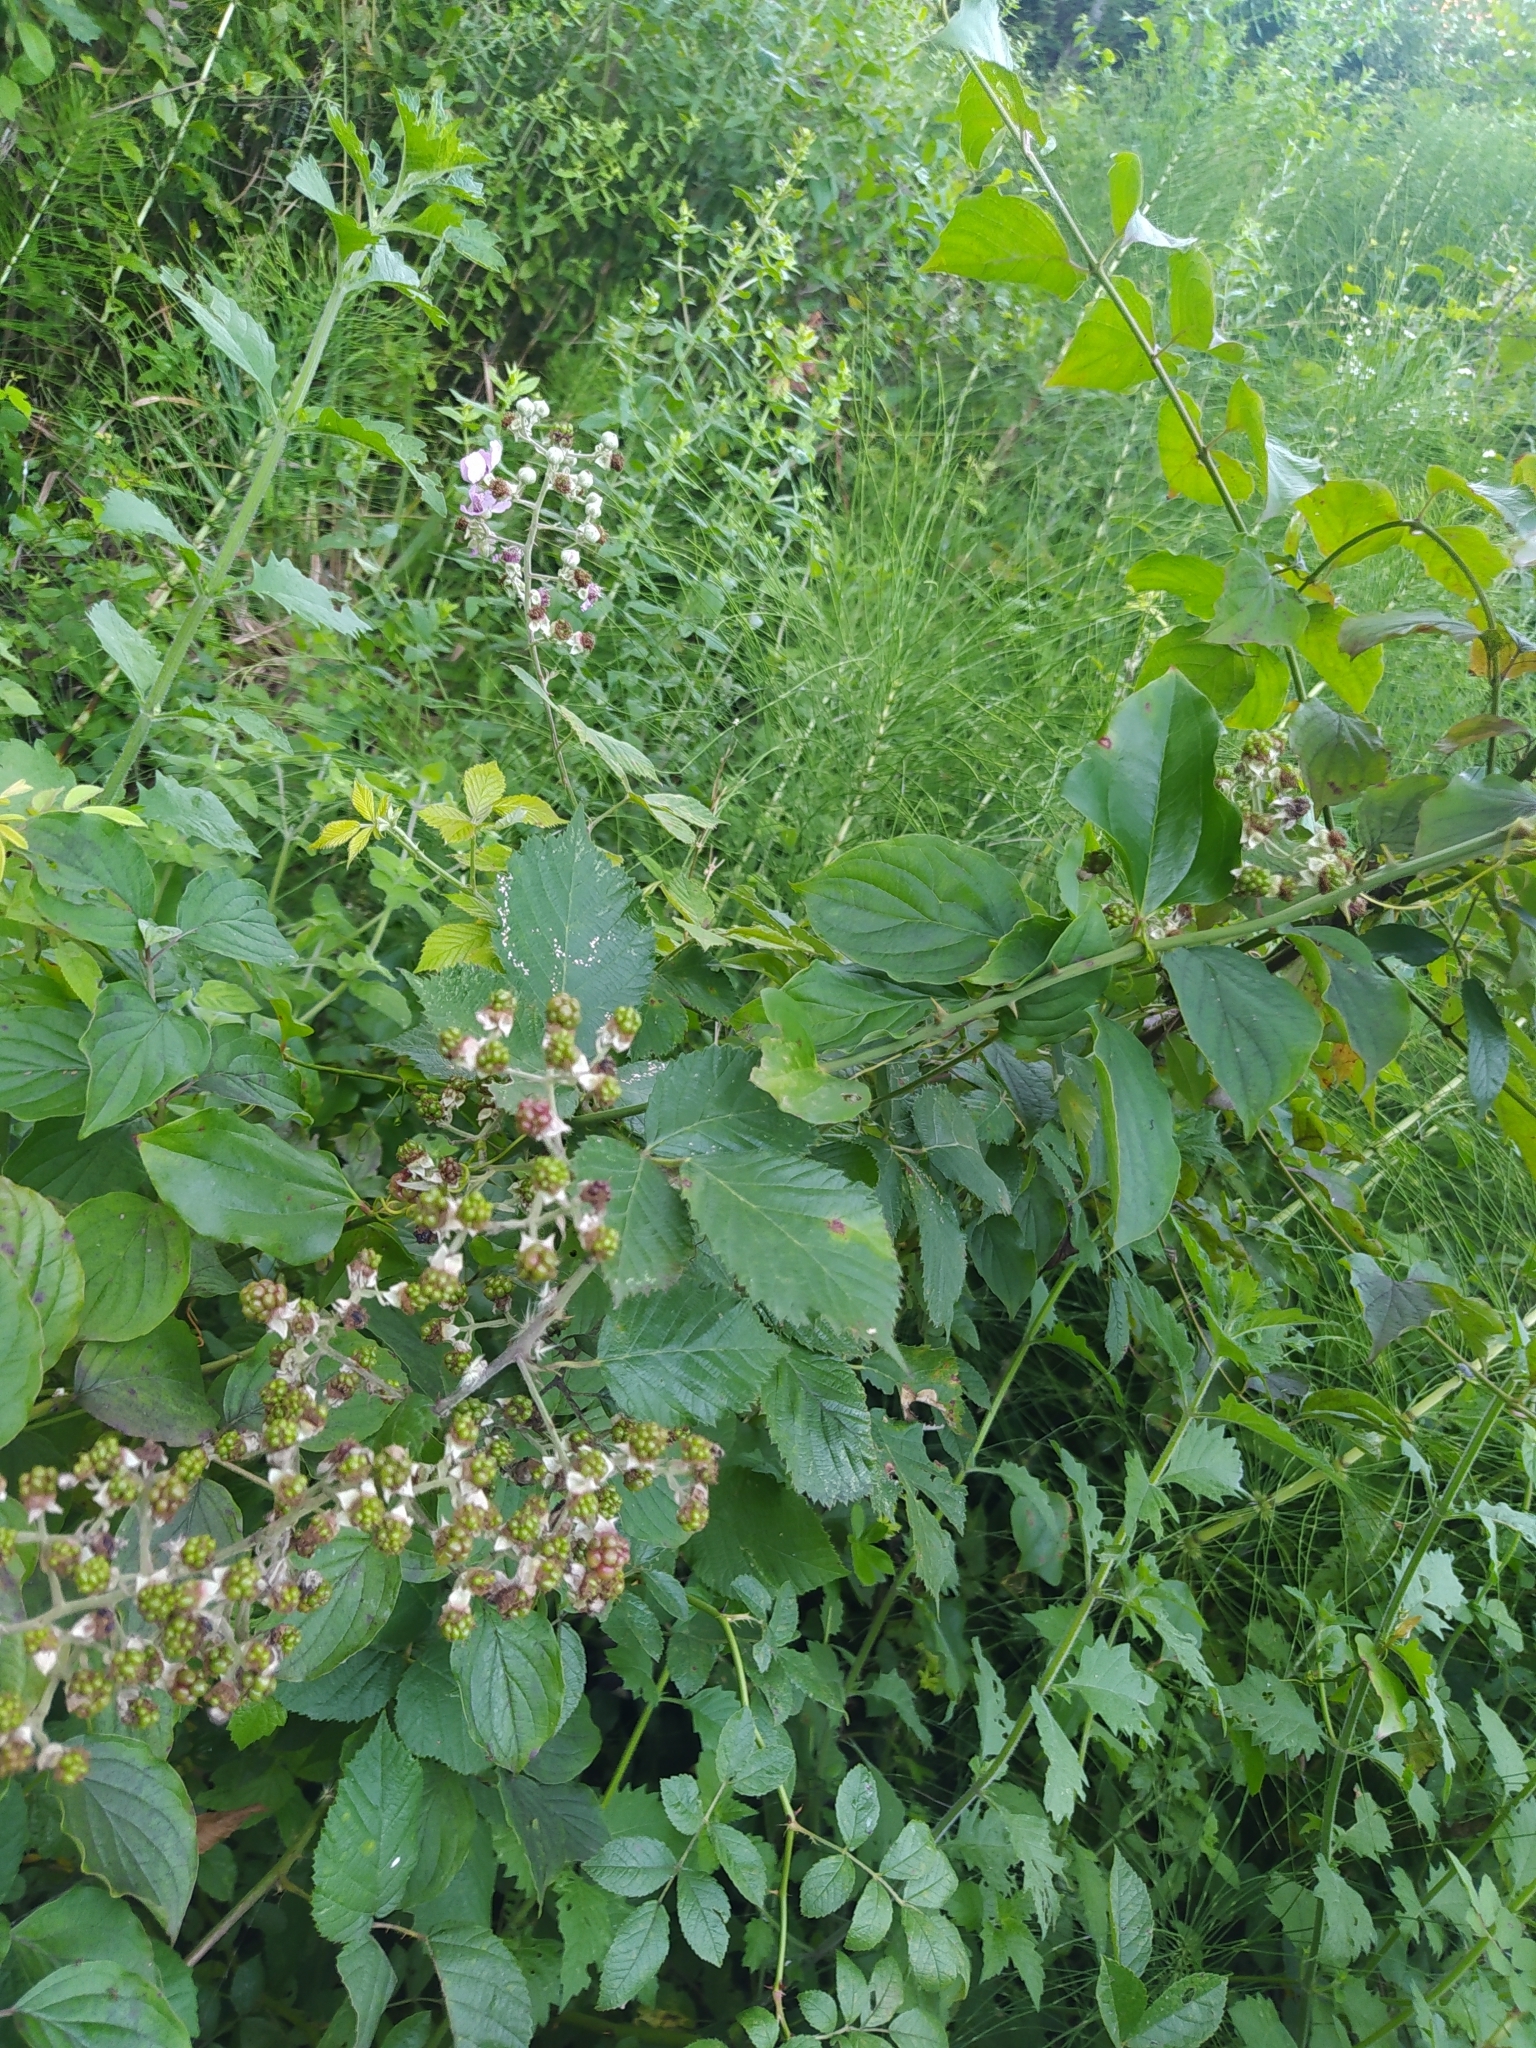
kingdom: Plantae
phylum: Tracheophyta
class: Magnoliopsida
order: Rosales
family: Rosaceae
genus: Rubus
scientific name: Rubus sanctus
